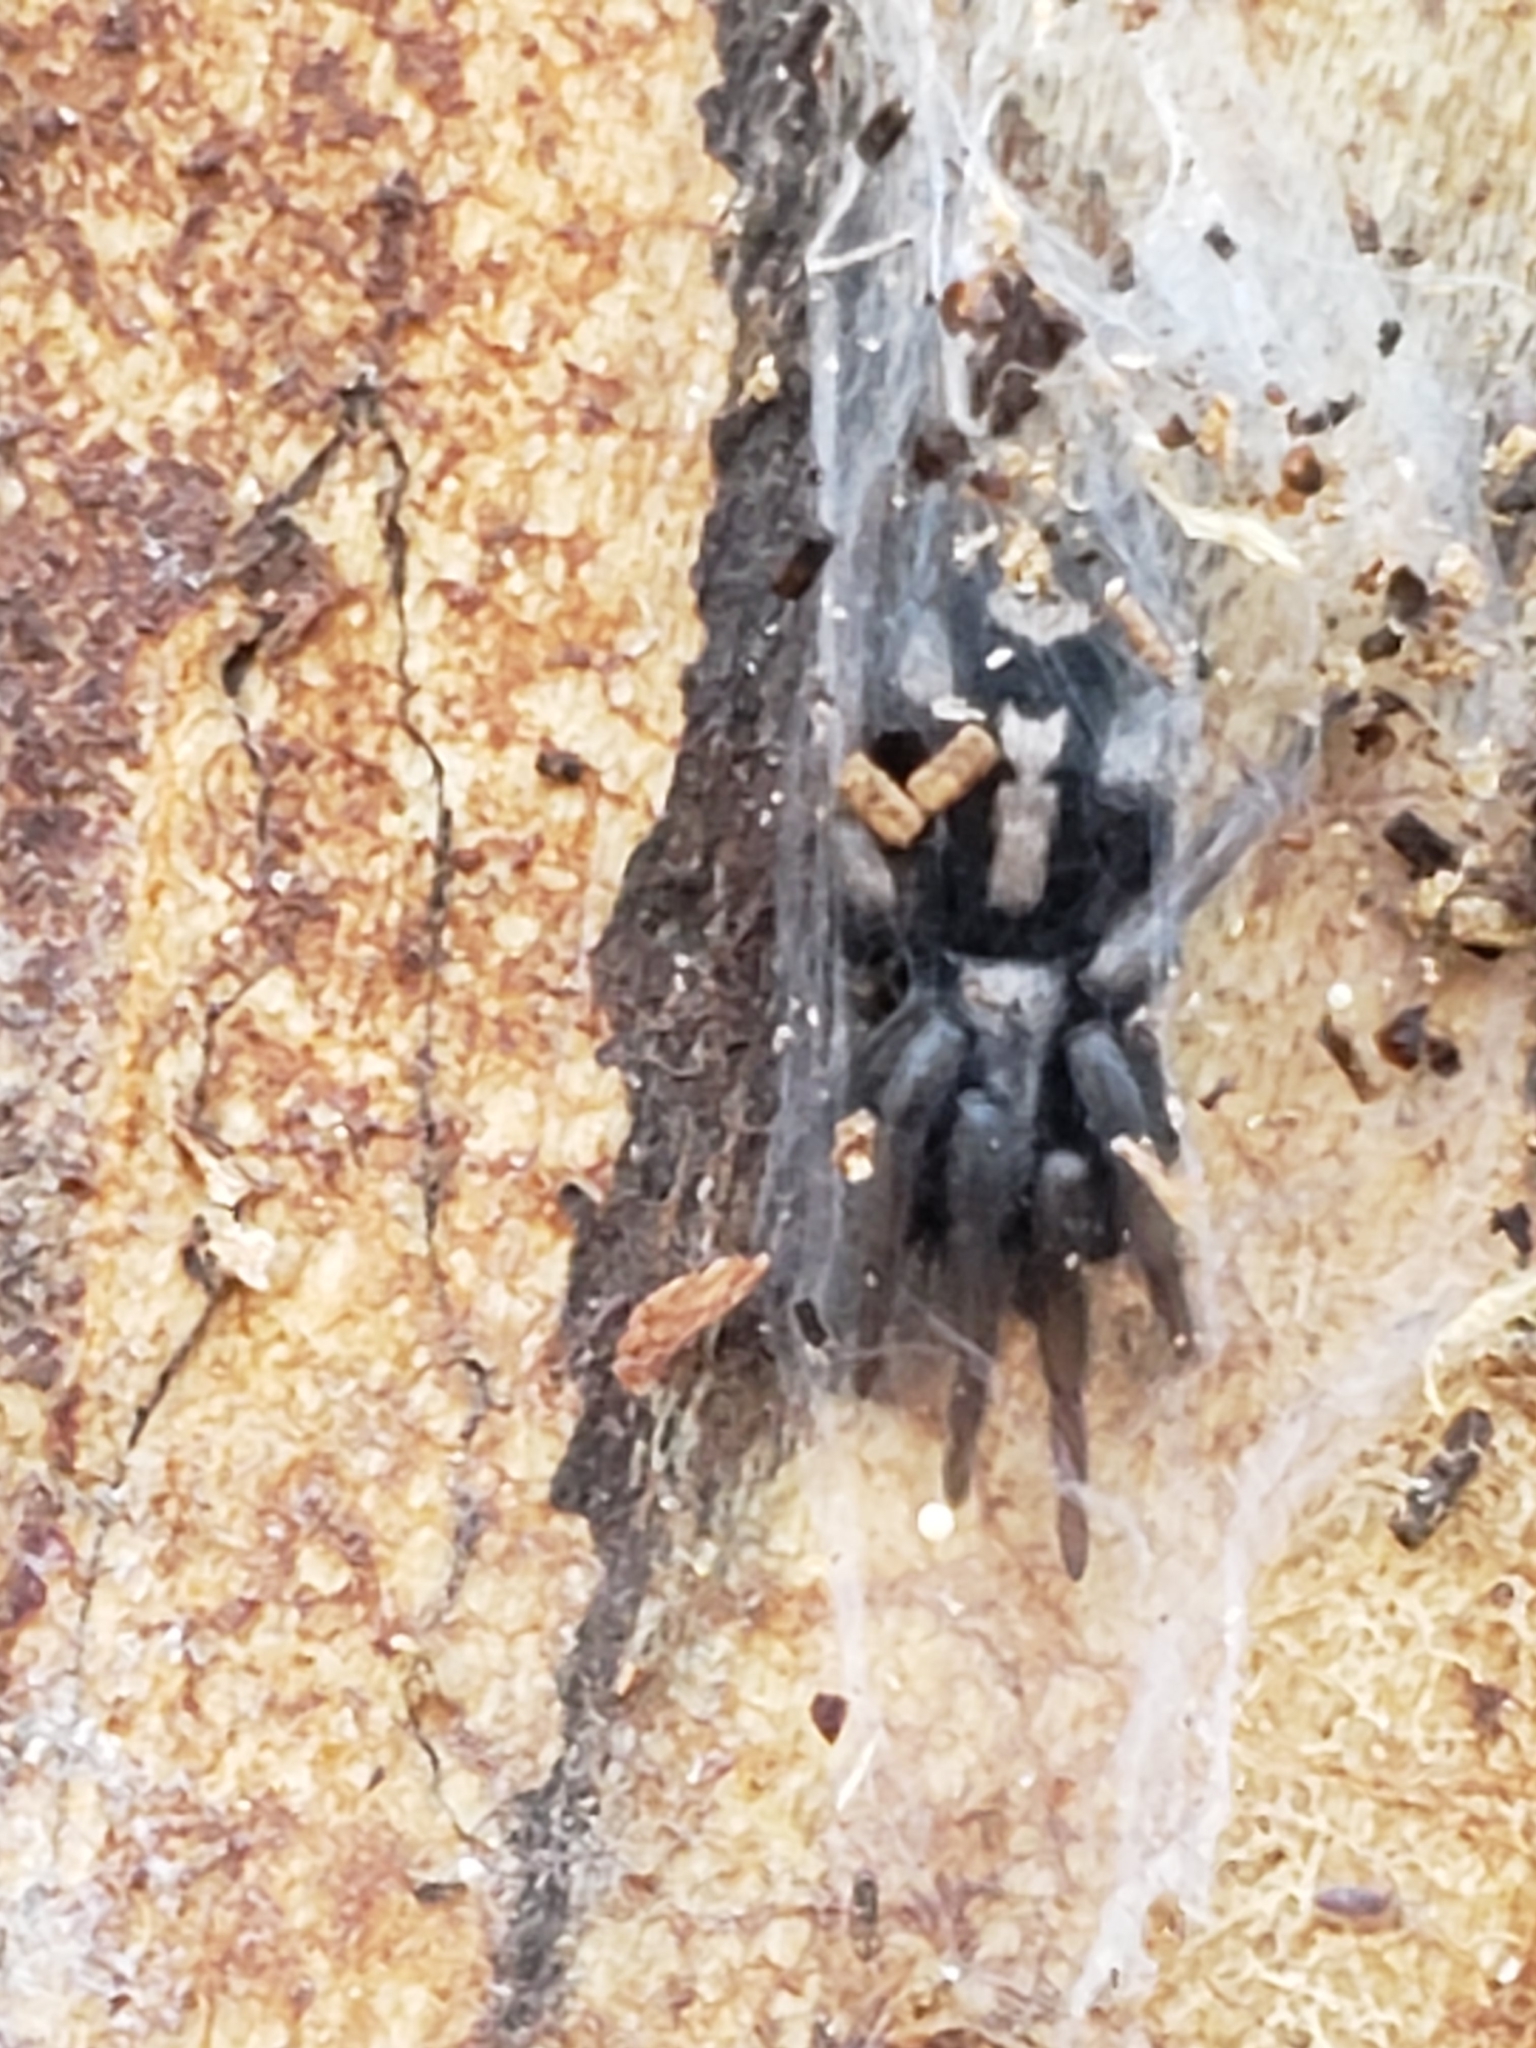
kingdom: Animalia
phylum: Arthropoda
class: Arachnida
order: Araneae
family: Gnaphosidae
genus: Herpyllus
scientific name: Herpyllus ecclesiasticus
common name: Eastern parson spider
